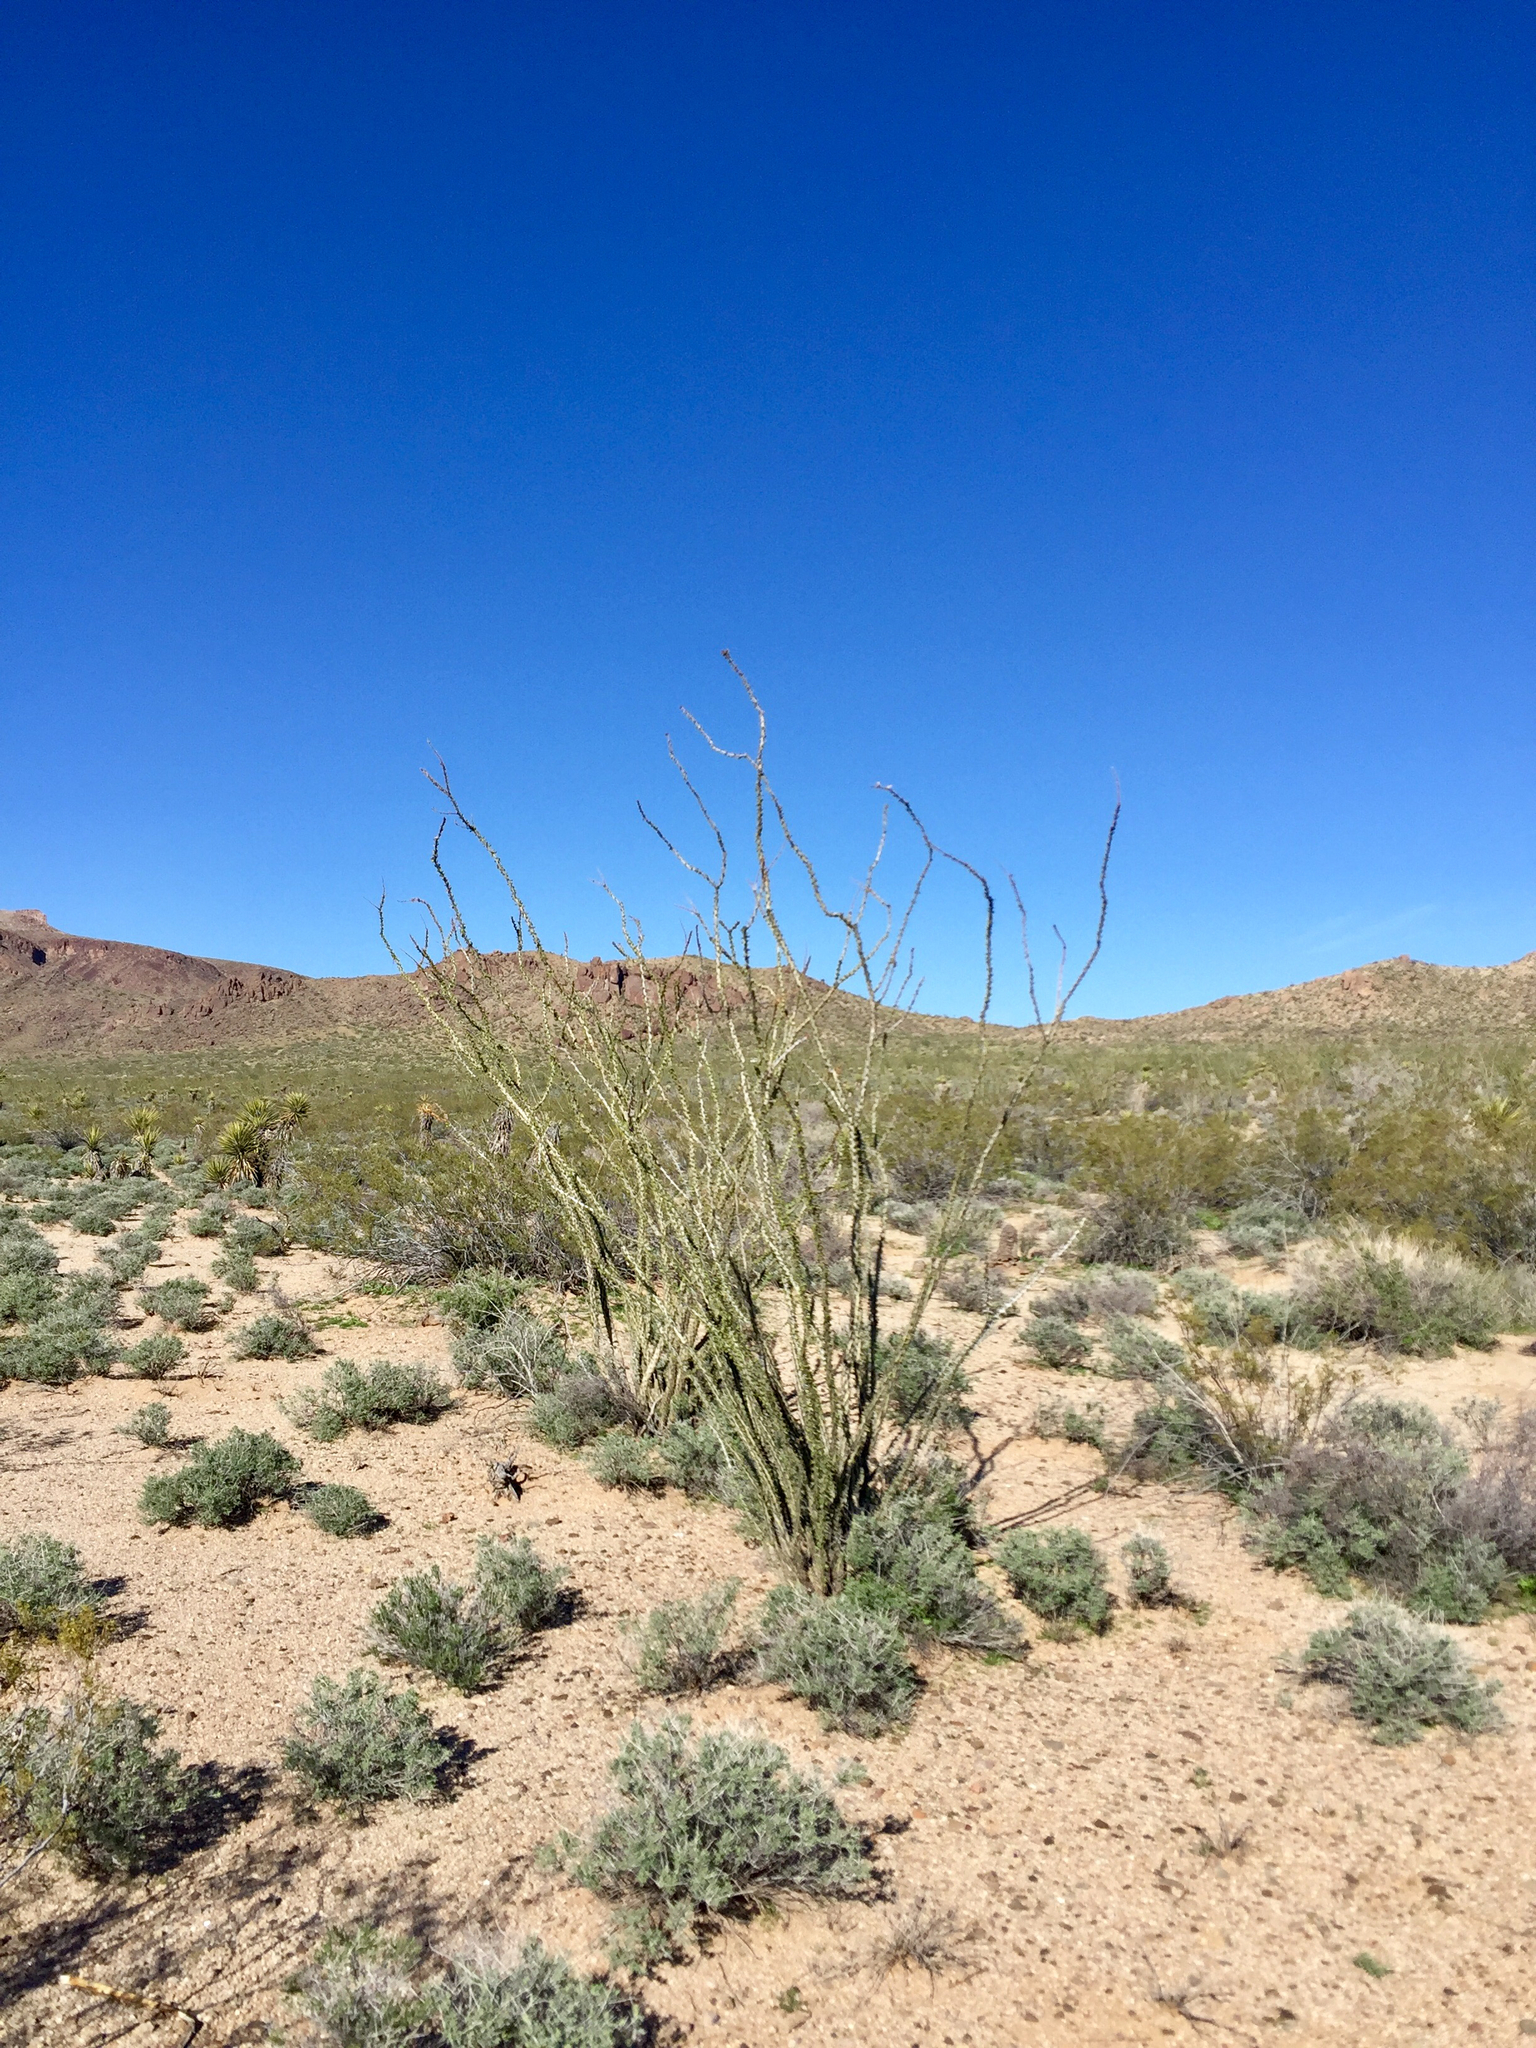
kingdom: Plantae
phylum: Tracheophyta
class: Magnoliopsida
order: Ericales
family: Fouquieriaceae
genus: Fouquieria
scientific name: Fouquieria splendens
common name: Vine-cactus
